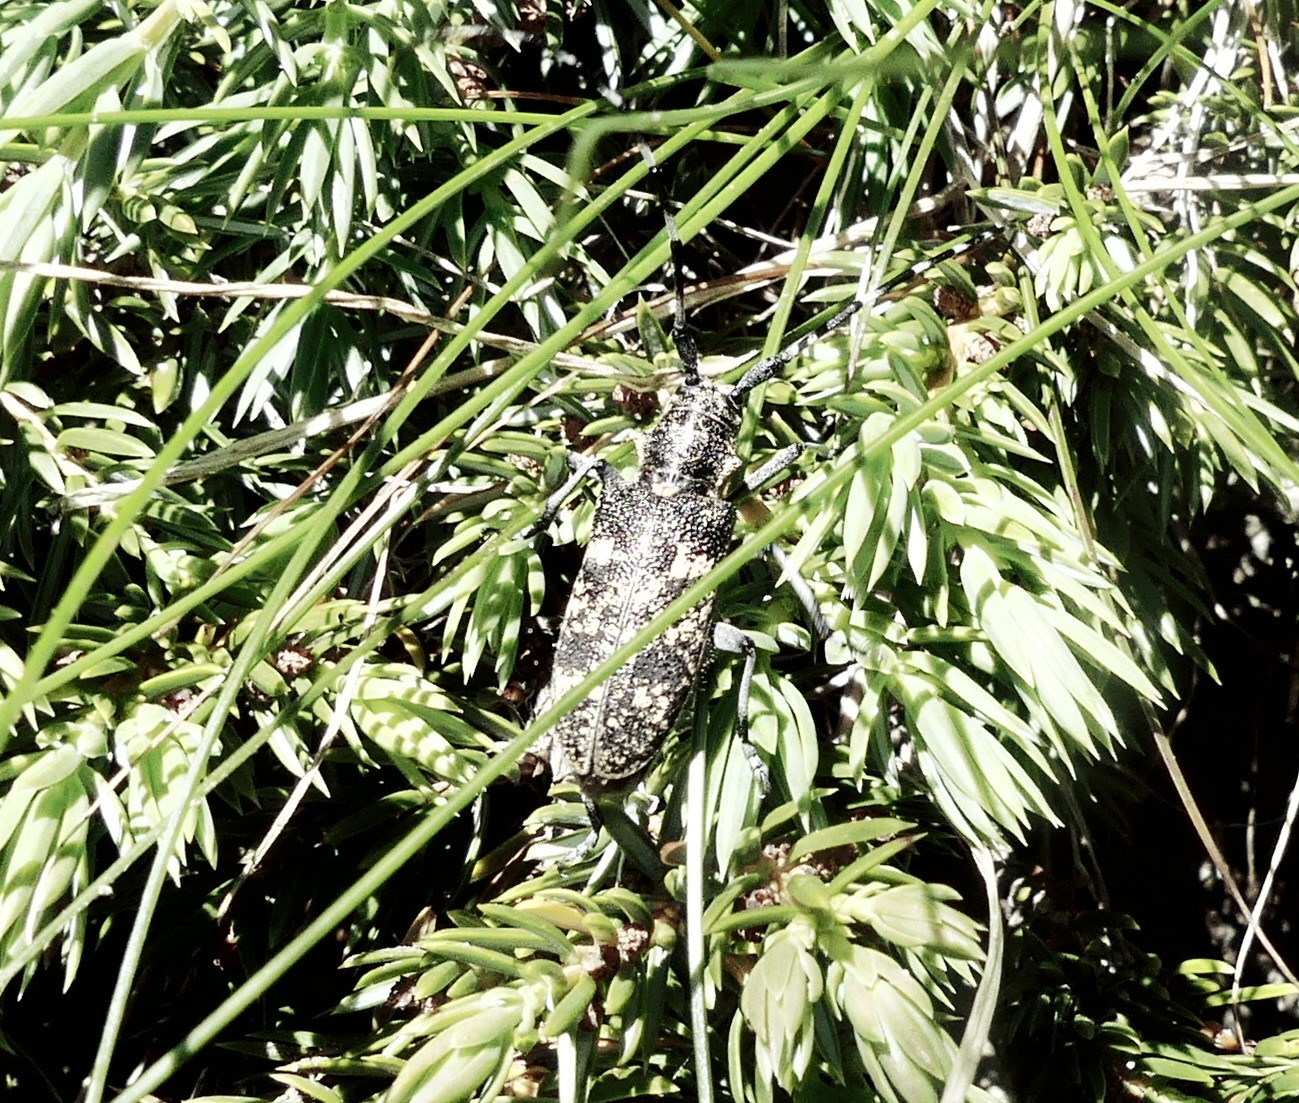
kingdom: Animalia
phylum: Arthropoda
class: Insecta
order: Coleoptera
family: Cerambycidae
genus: Monochamus
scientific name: Monochamus sutor
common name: Pine sawyer
